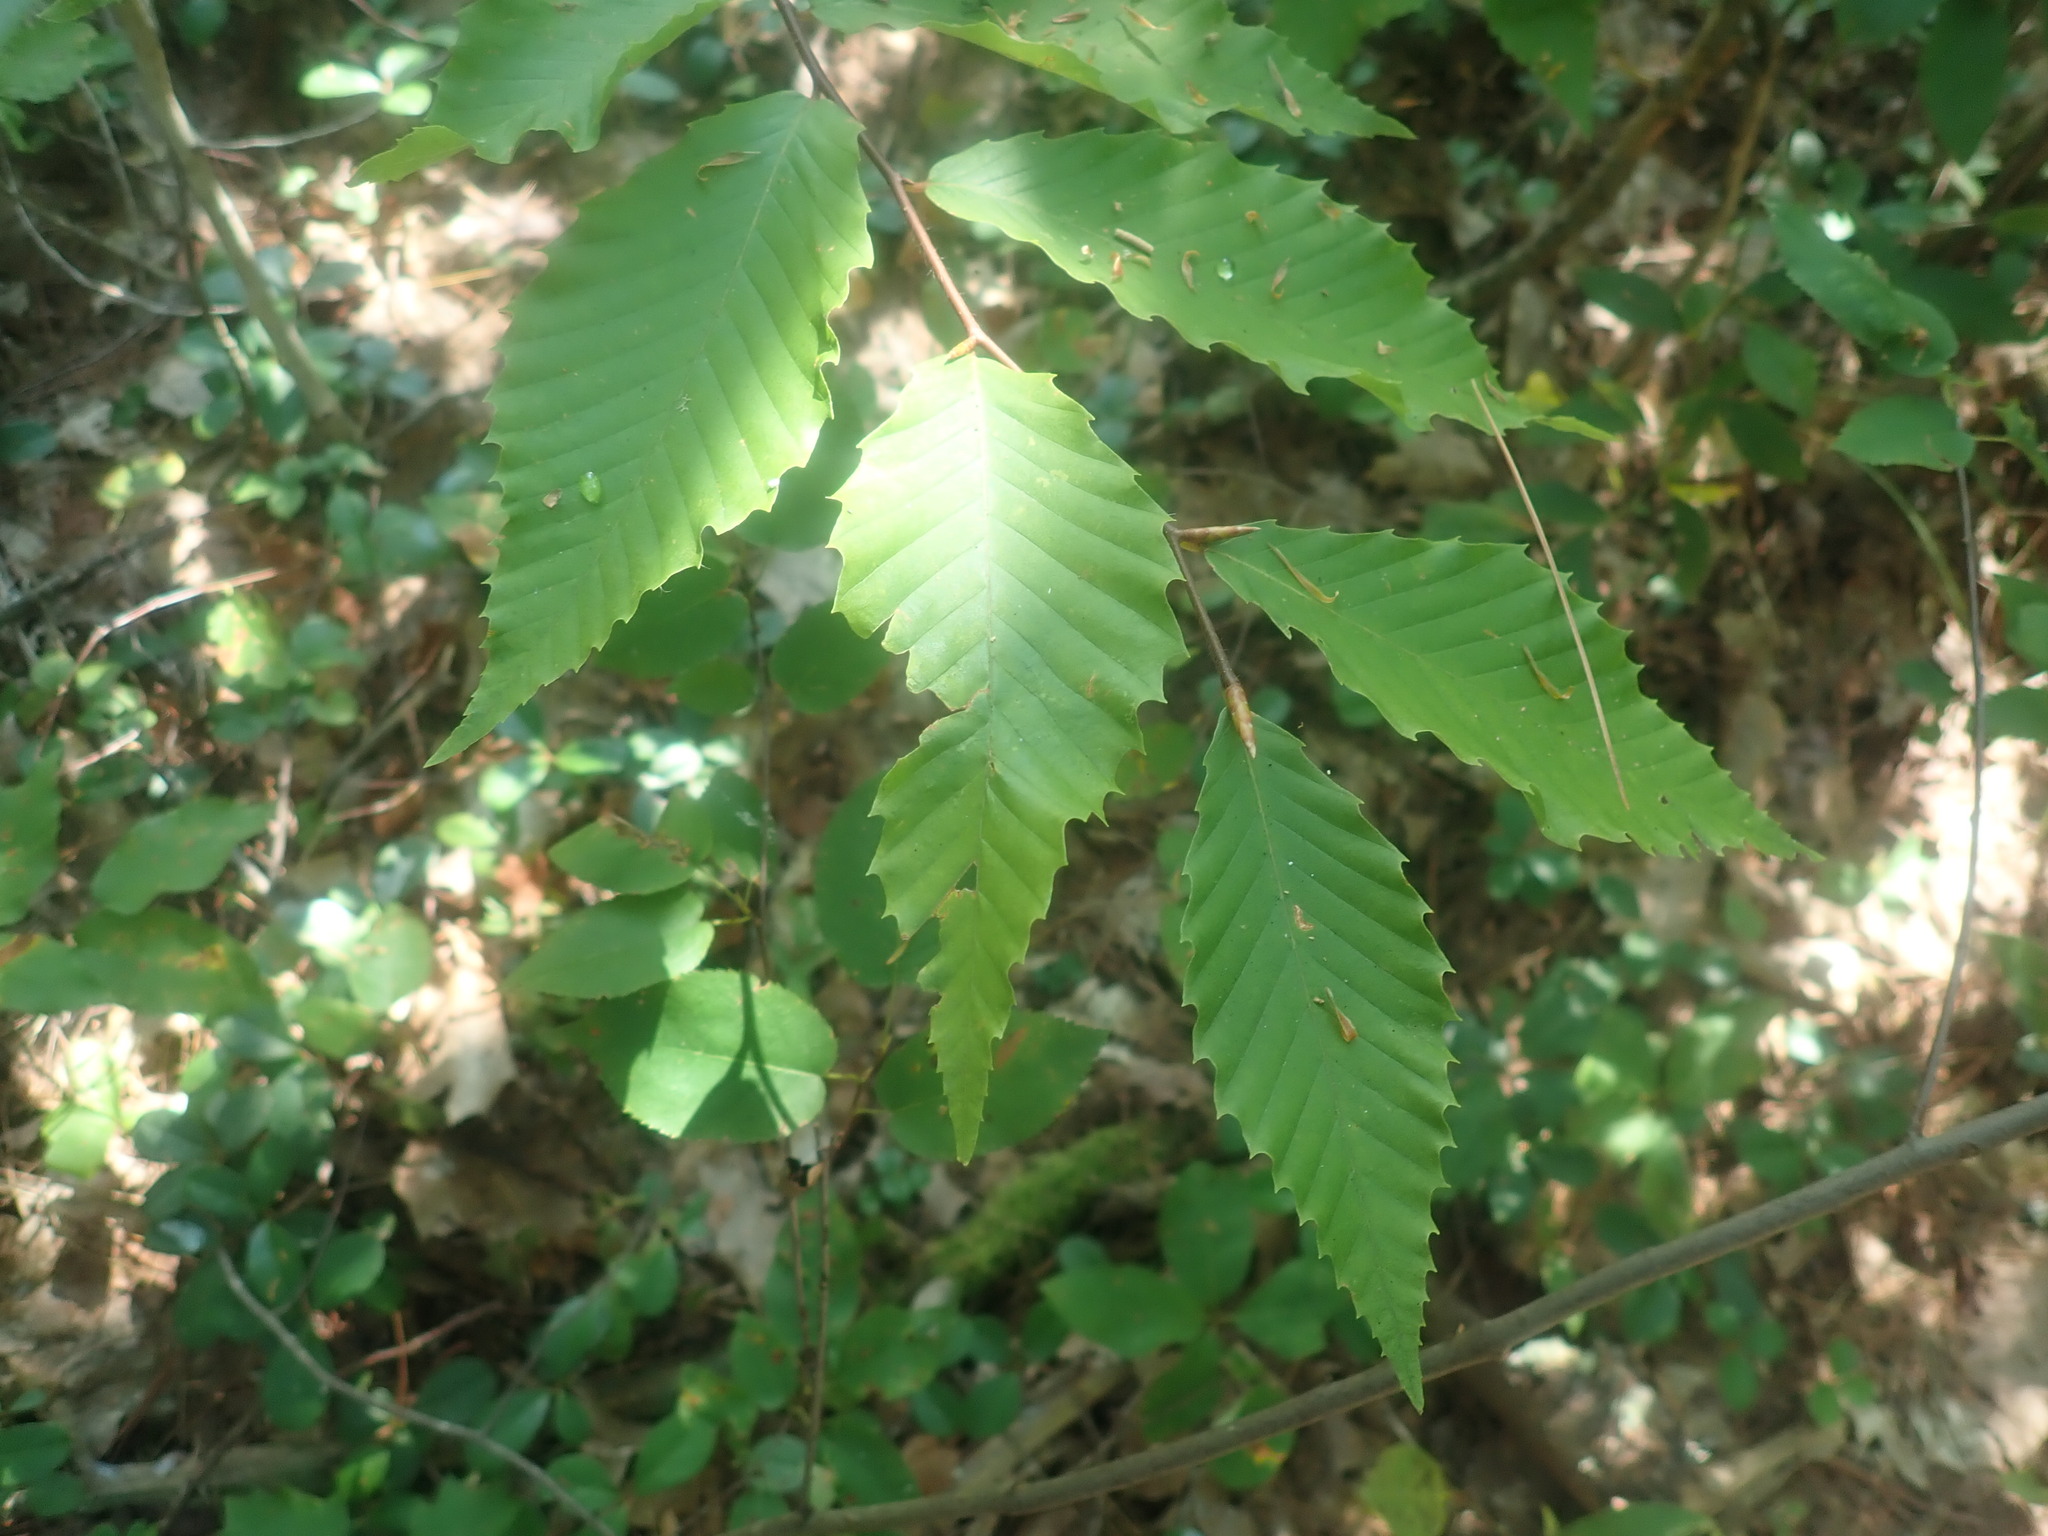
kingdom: Plantae
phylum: Tracheophyta
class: Magnoliopsida
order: Fagales
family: Fagaceae
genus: Fagus
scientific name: Fagus grandifolia
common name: American beech
